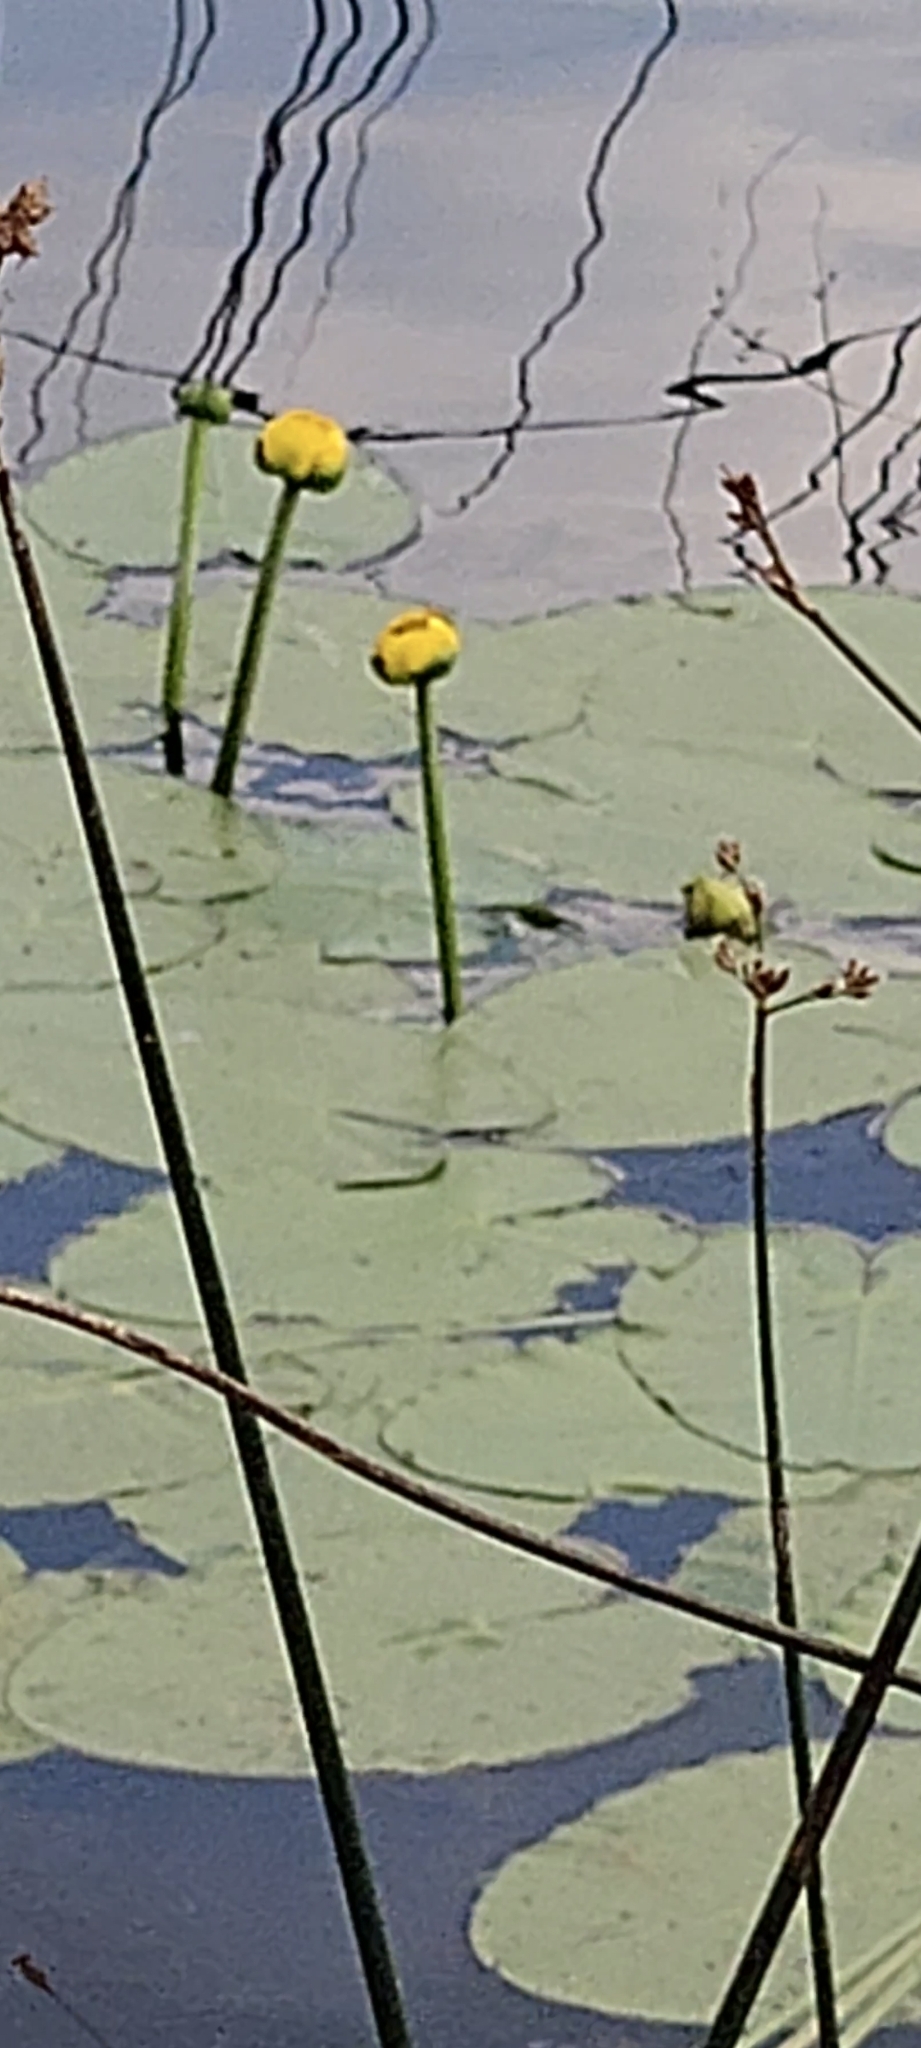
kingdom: Plantae
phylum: Tracheophyta
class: Magnoliopsida
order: Nymphaeales
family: Nymphaeaceae
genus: Nuphar
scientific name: Nuphar lutea
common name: Yellow water-lily
